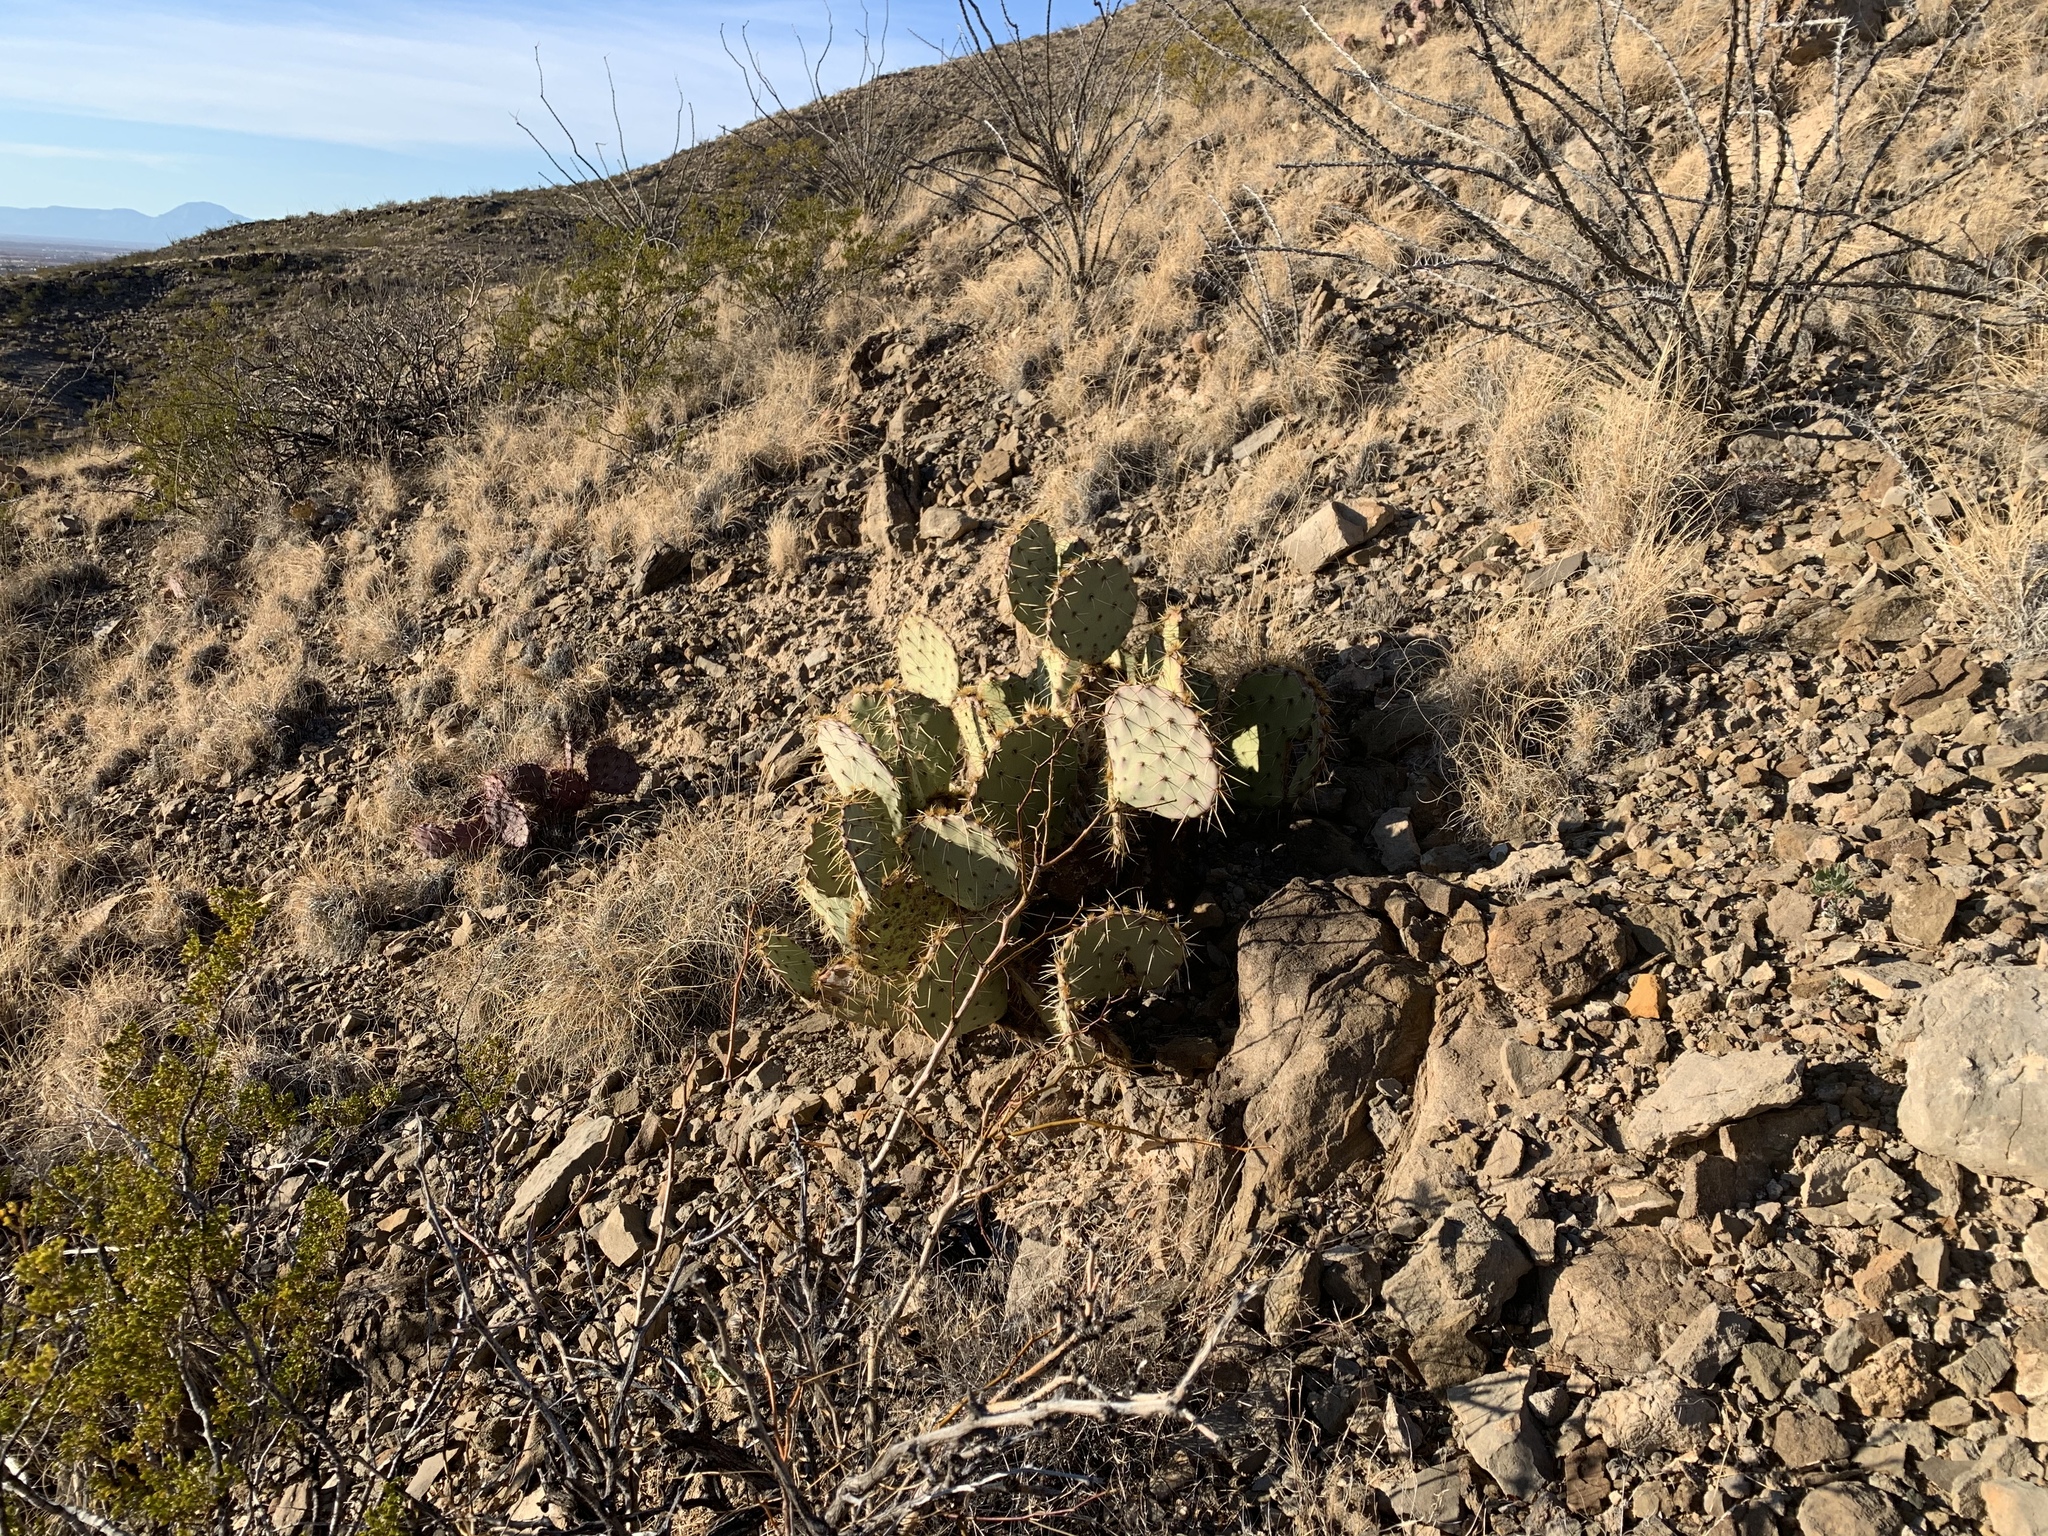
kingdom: Plantae
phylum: Tracheophyta
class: Magnoliopsida
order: Caryophyllales
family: Cactaceae
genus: Opuntia
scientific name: Opuntia engelmannii
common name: Cactus-apple
